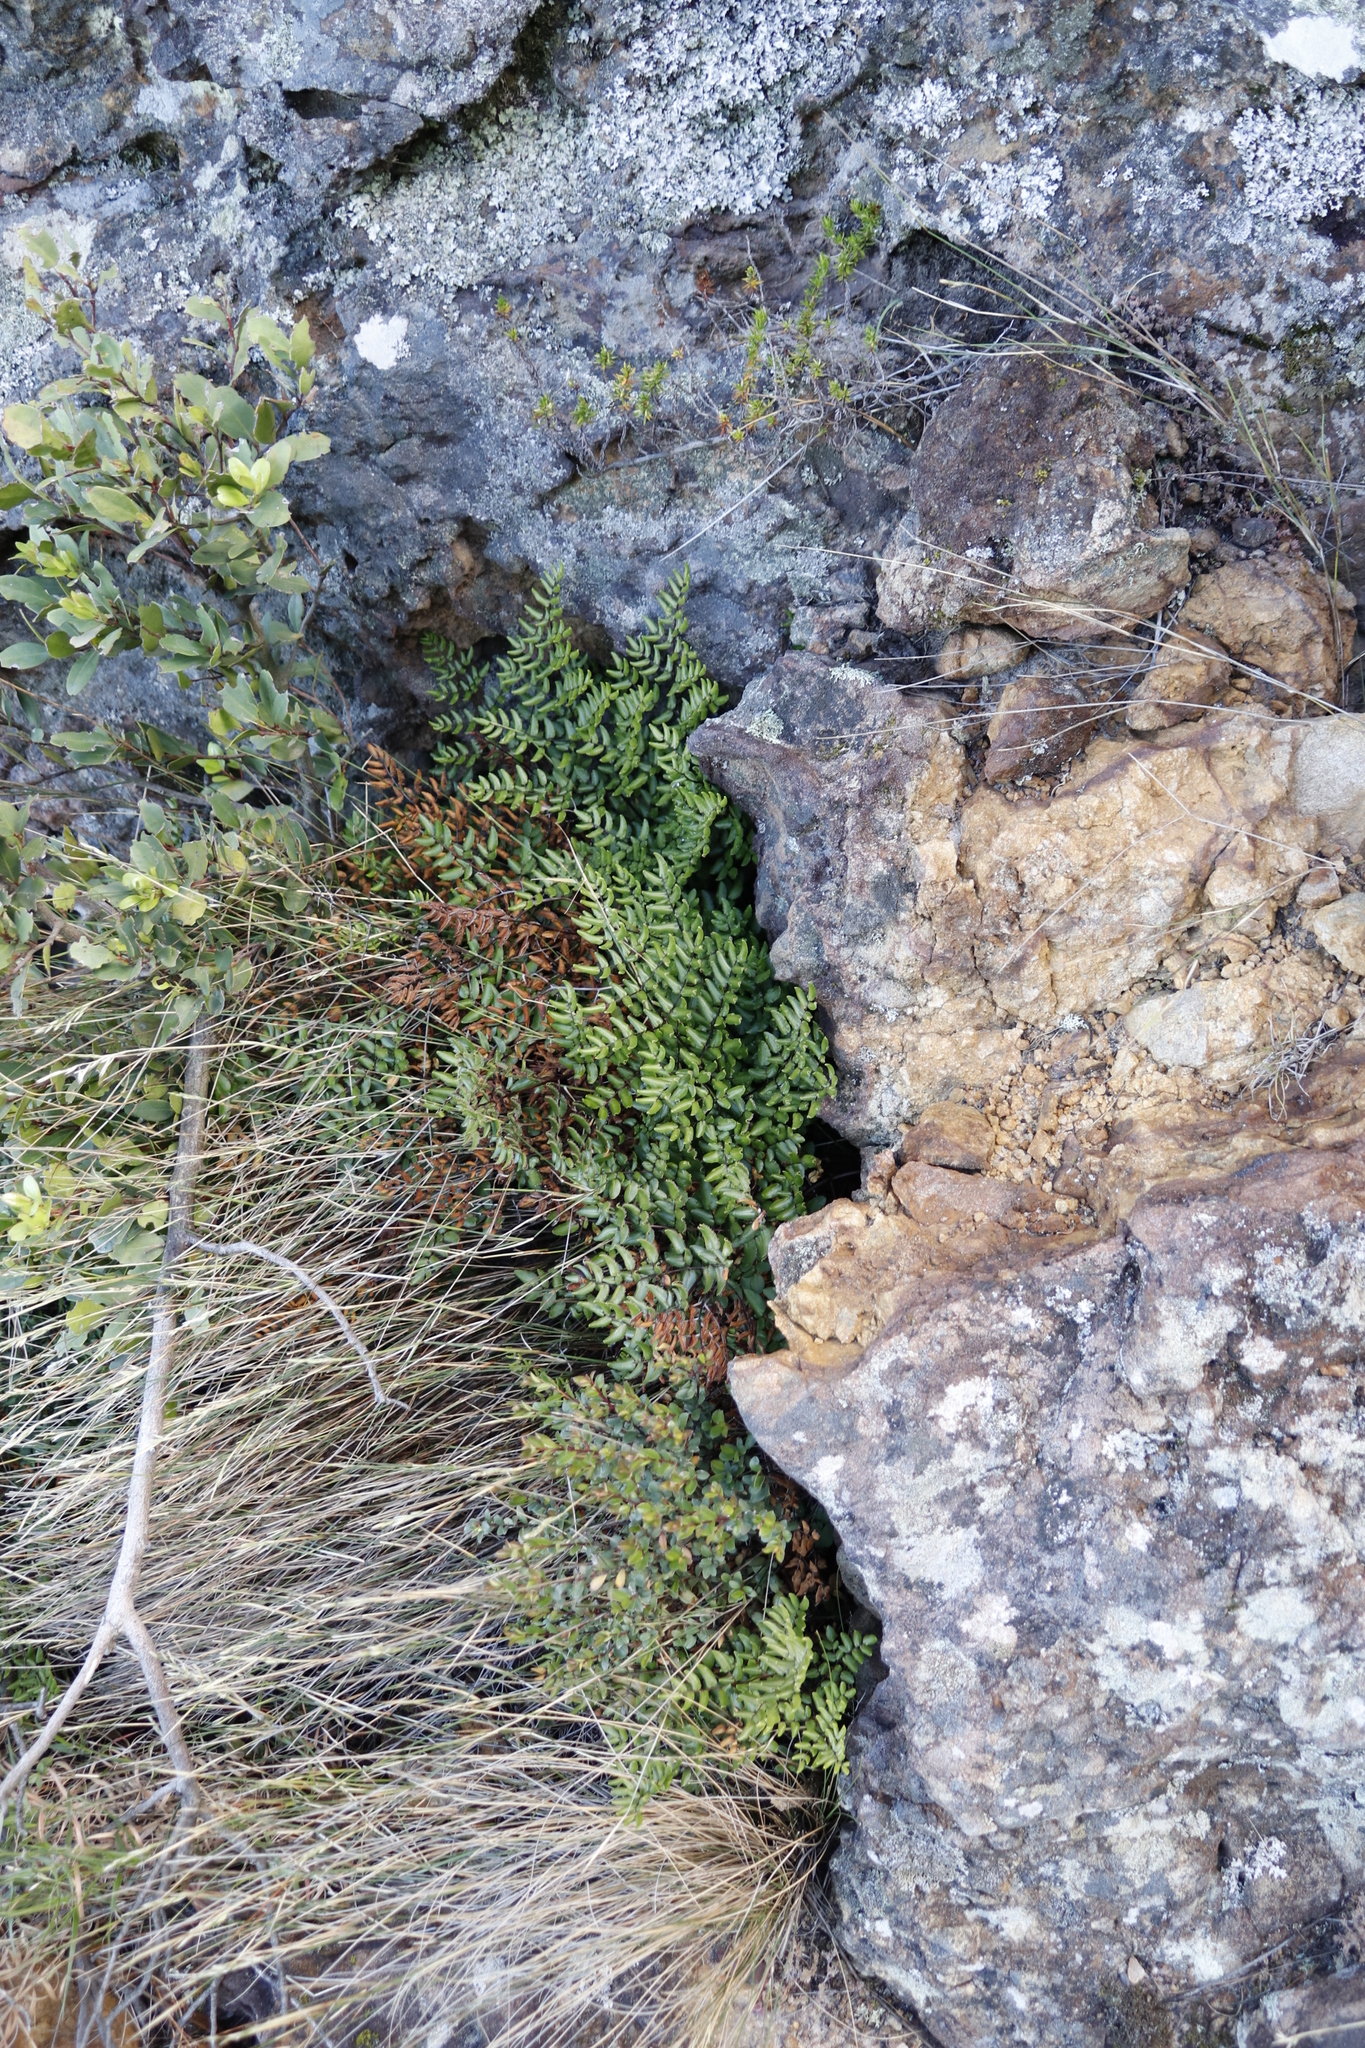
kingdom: Plantae
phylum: Tracheophyta
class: Polypodiopsida
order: Polypodiales
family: Pteridaceae
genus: Pellaea
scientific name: Pellaea pteroides
